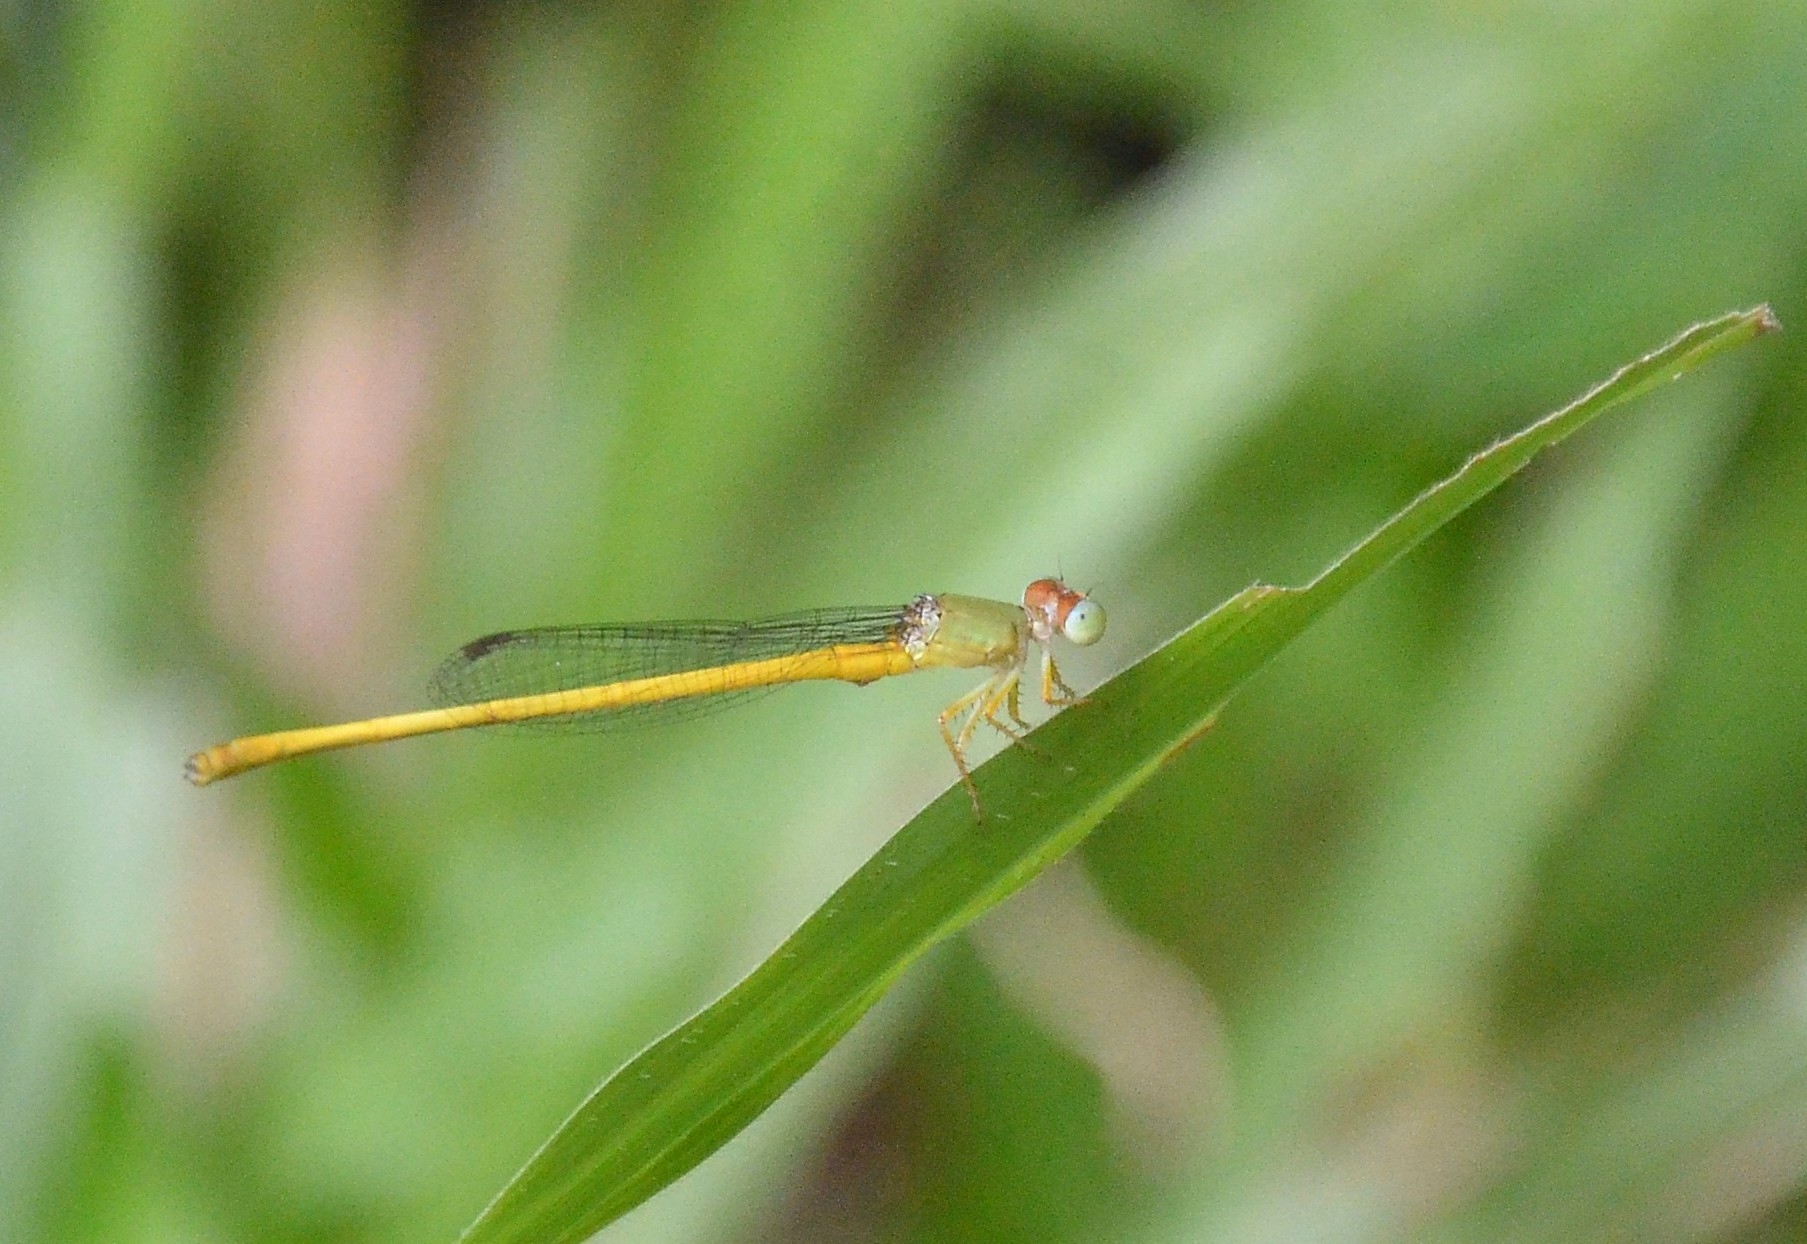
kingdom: Animalia
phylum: Arthropoda
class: Insecta
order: Odonata
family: Coenagrionidae
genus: Ceriagrion
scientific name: Ceriagrion coromandelianum
